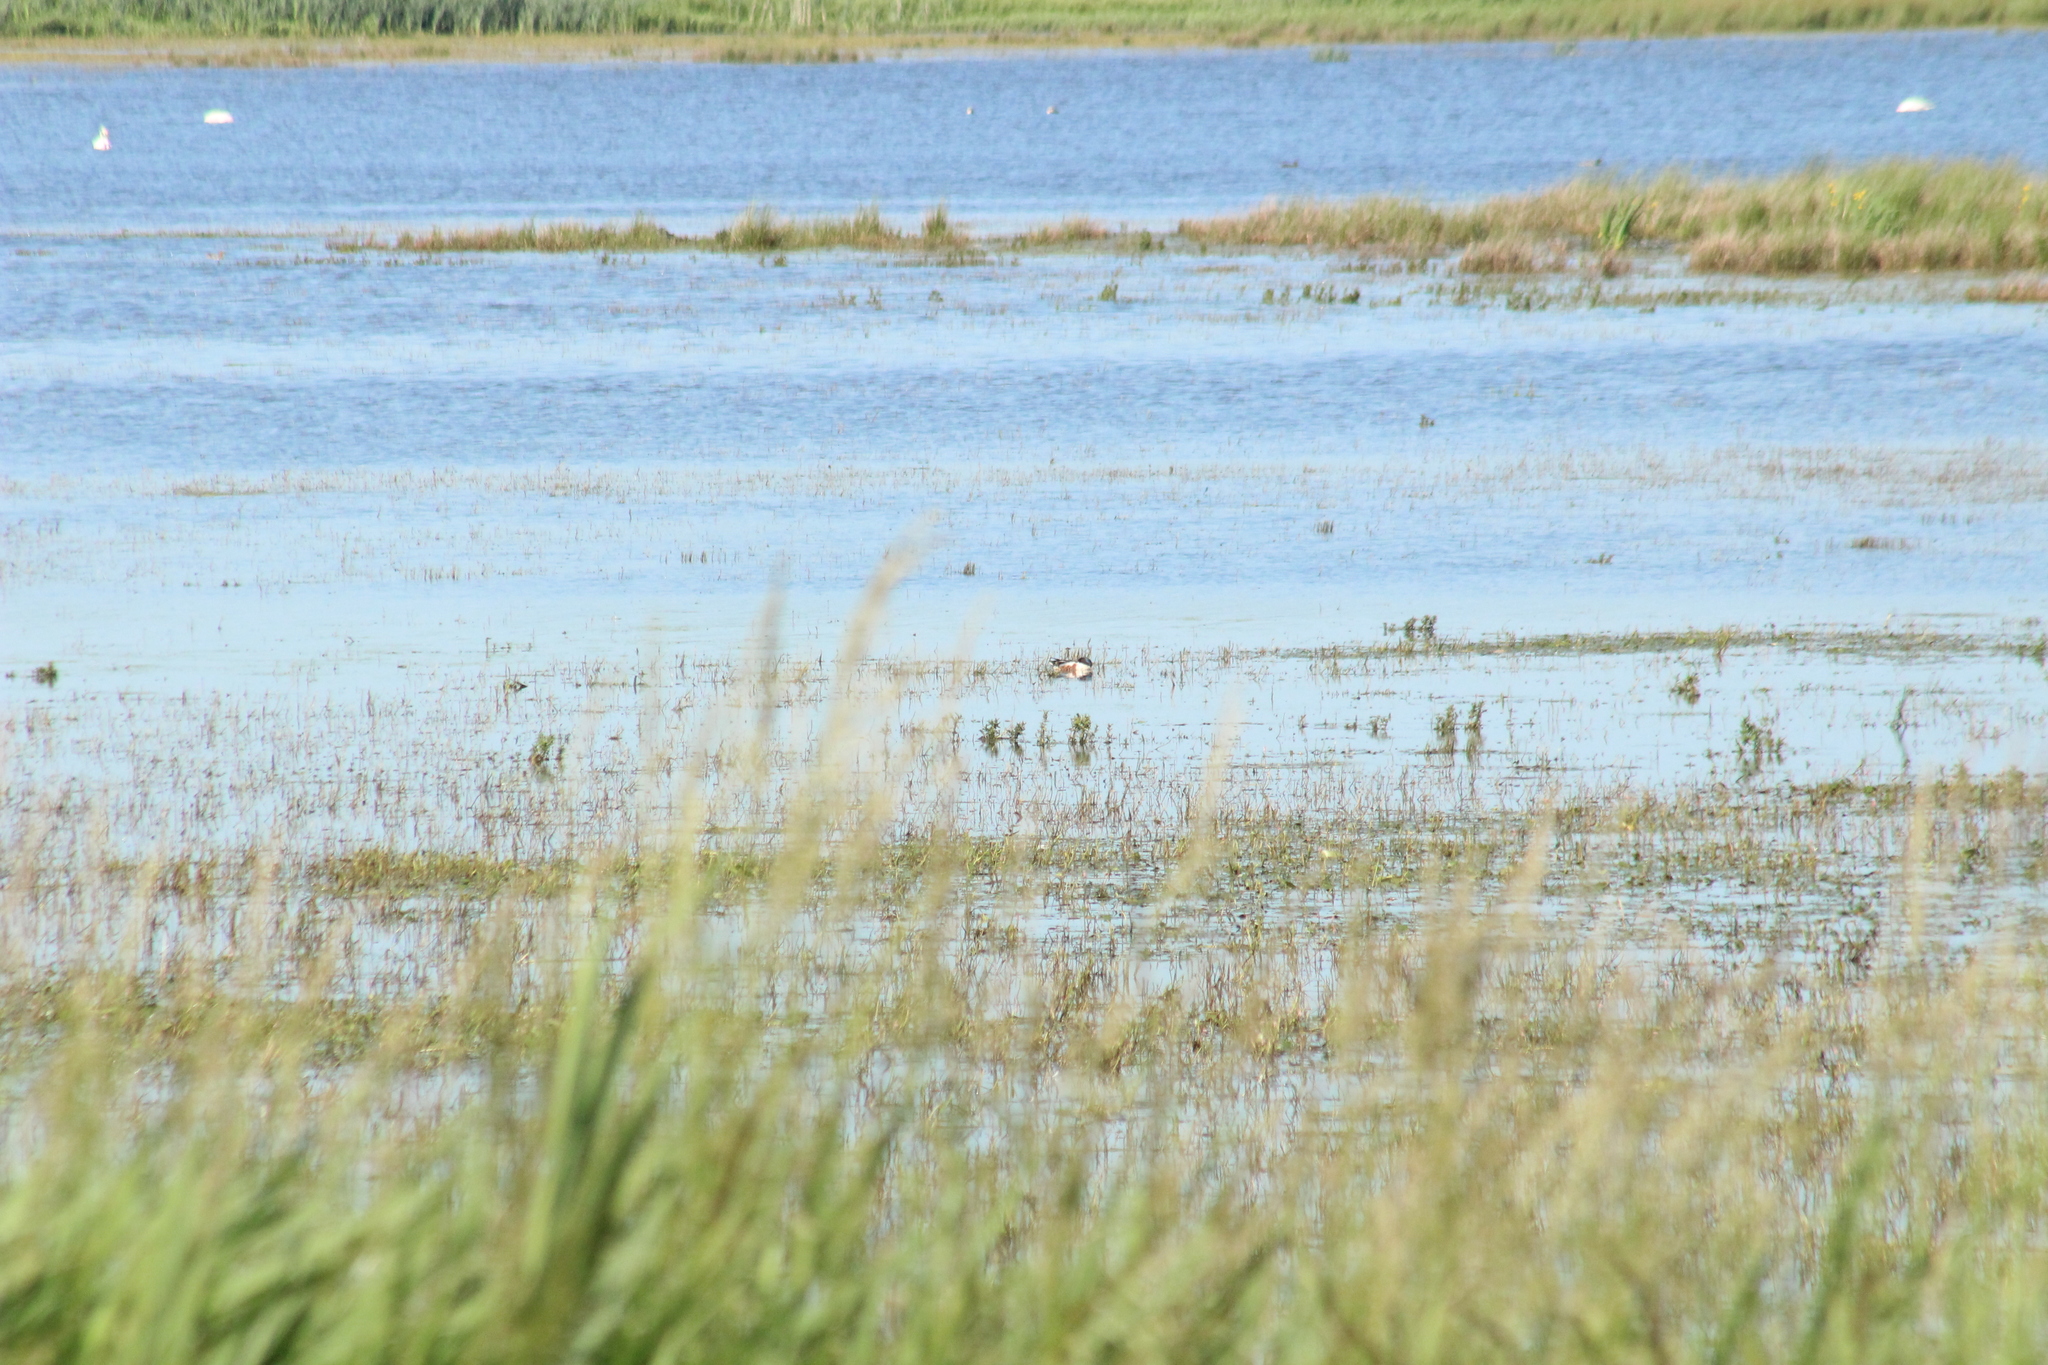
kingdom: Animalia
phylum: Chordata
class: Aves
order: Anseriformes
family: Anatidae
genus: Spatula
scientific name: Spatula clypeata
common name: Northern shoveler
